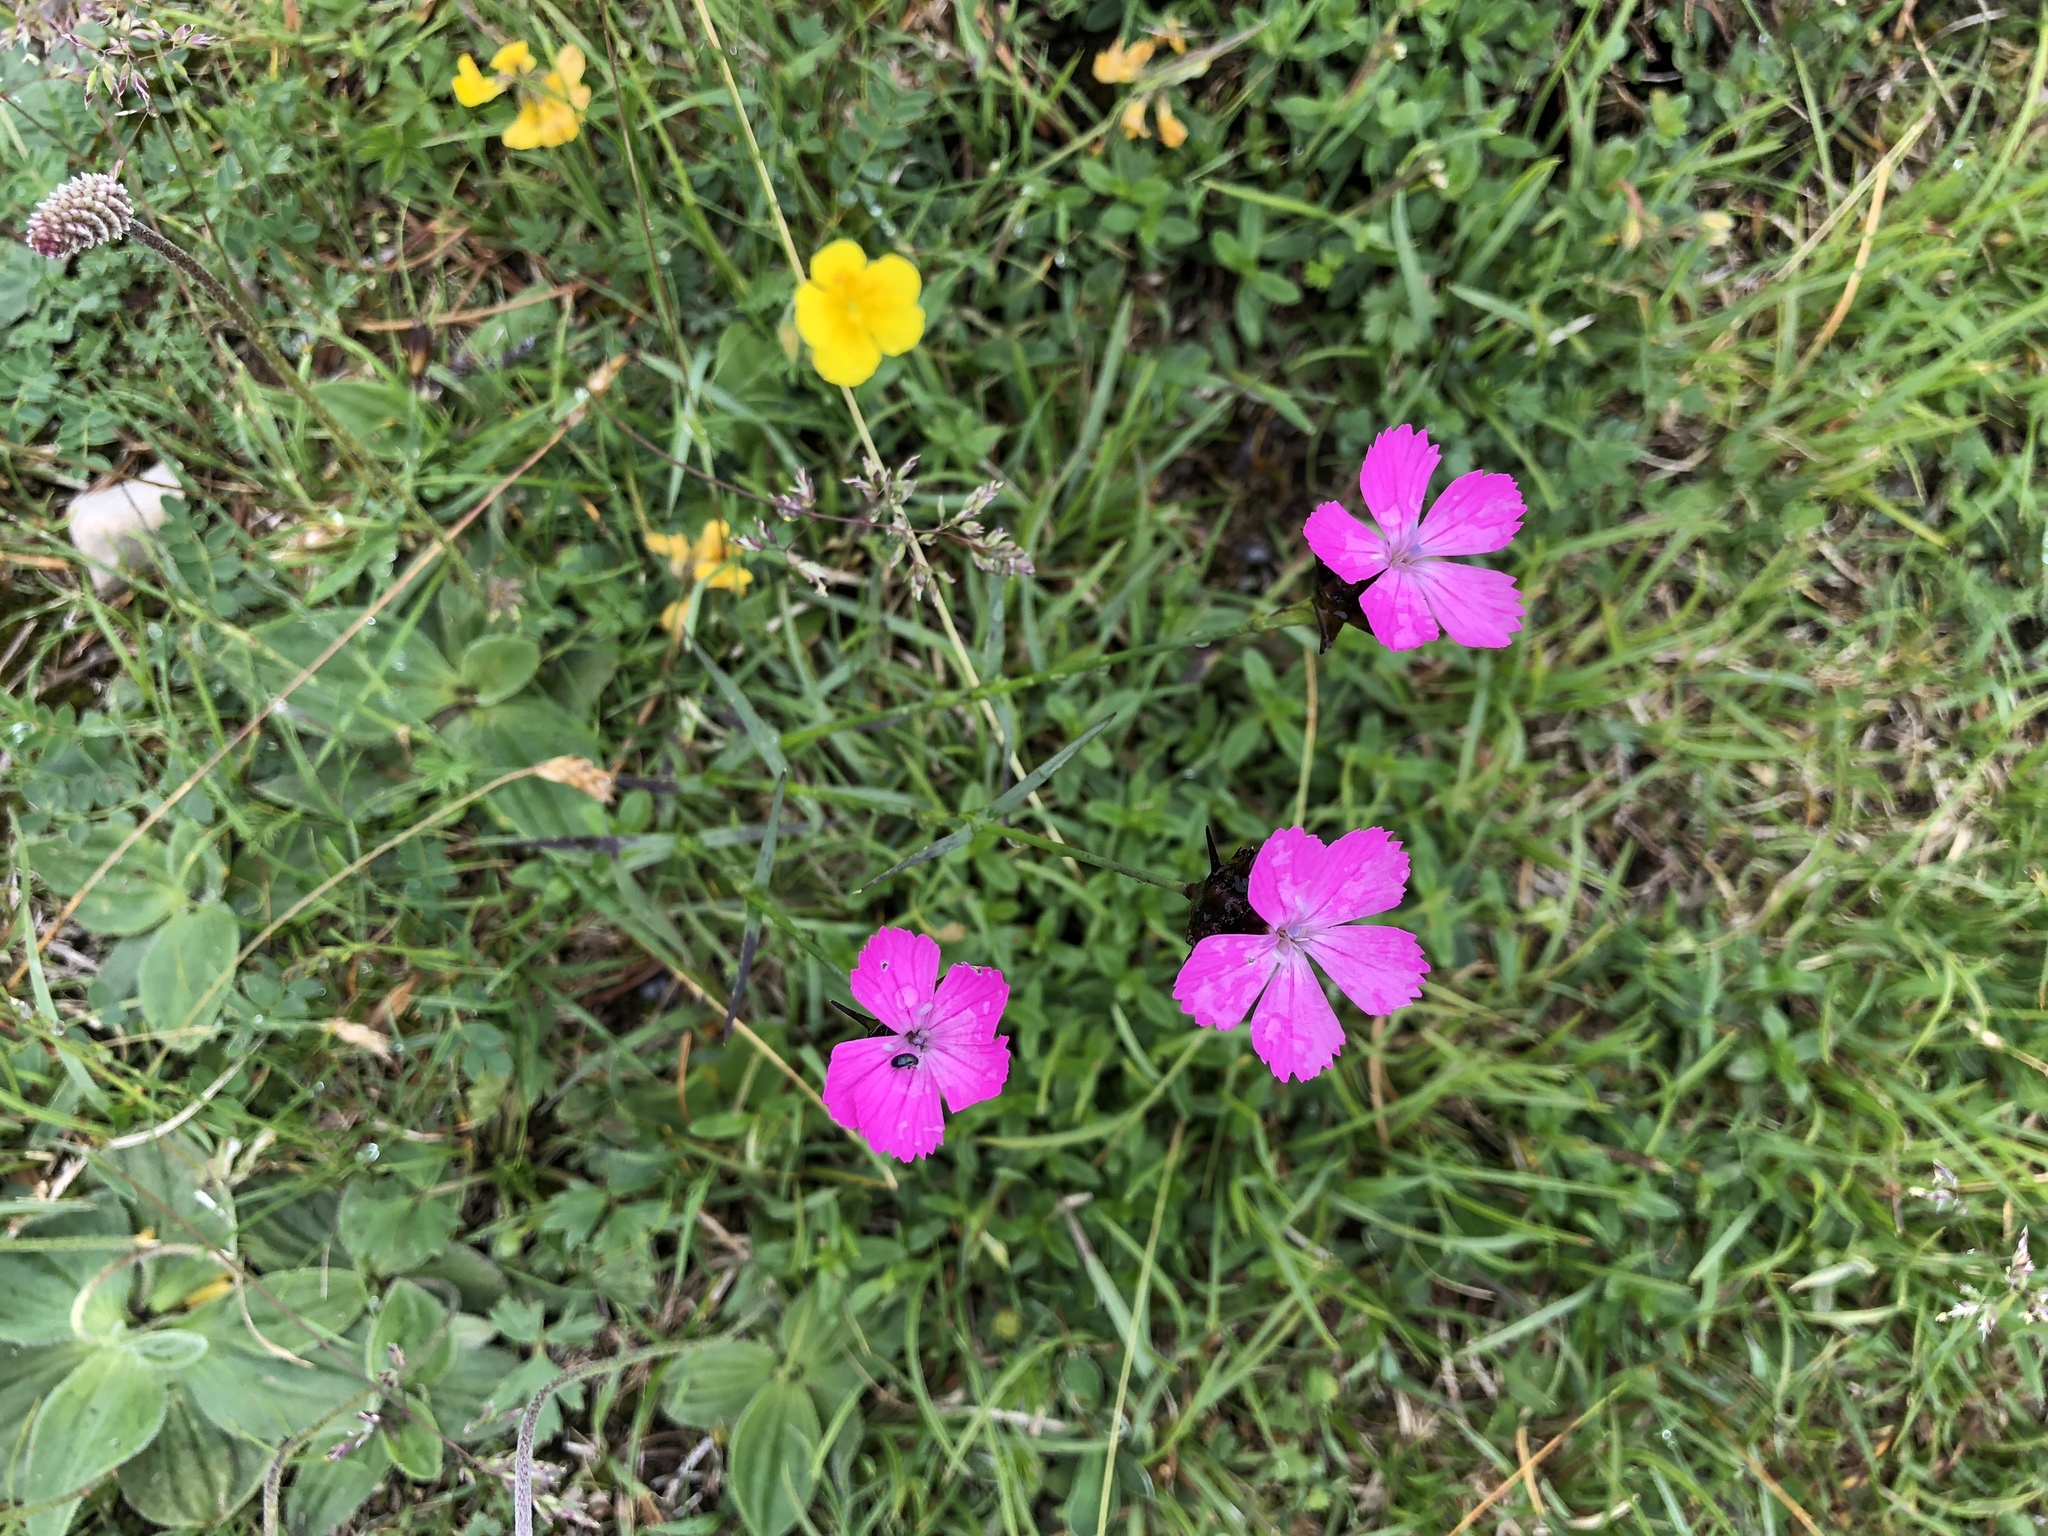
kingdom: Plantae
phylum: Tracheophyta
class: Magnoliopsida
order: Caryophyllales
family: Caryophyllaceae
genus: Dianthus
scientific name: Dianthus carthusianorum
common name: Carthusian pink
